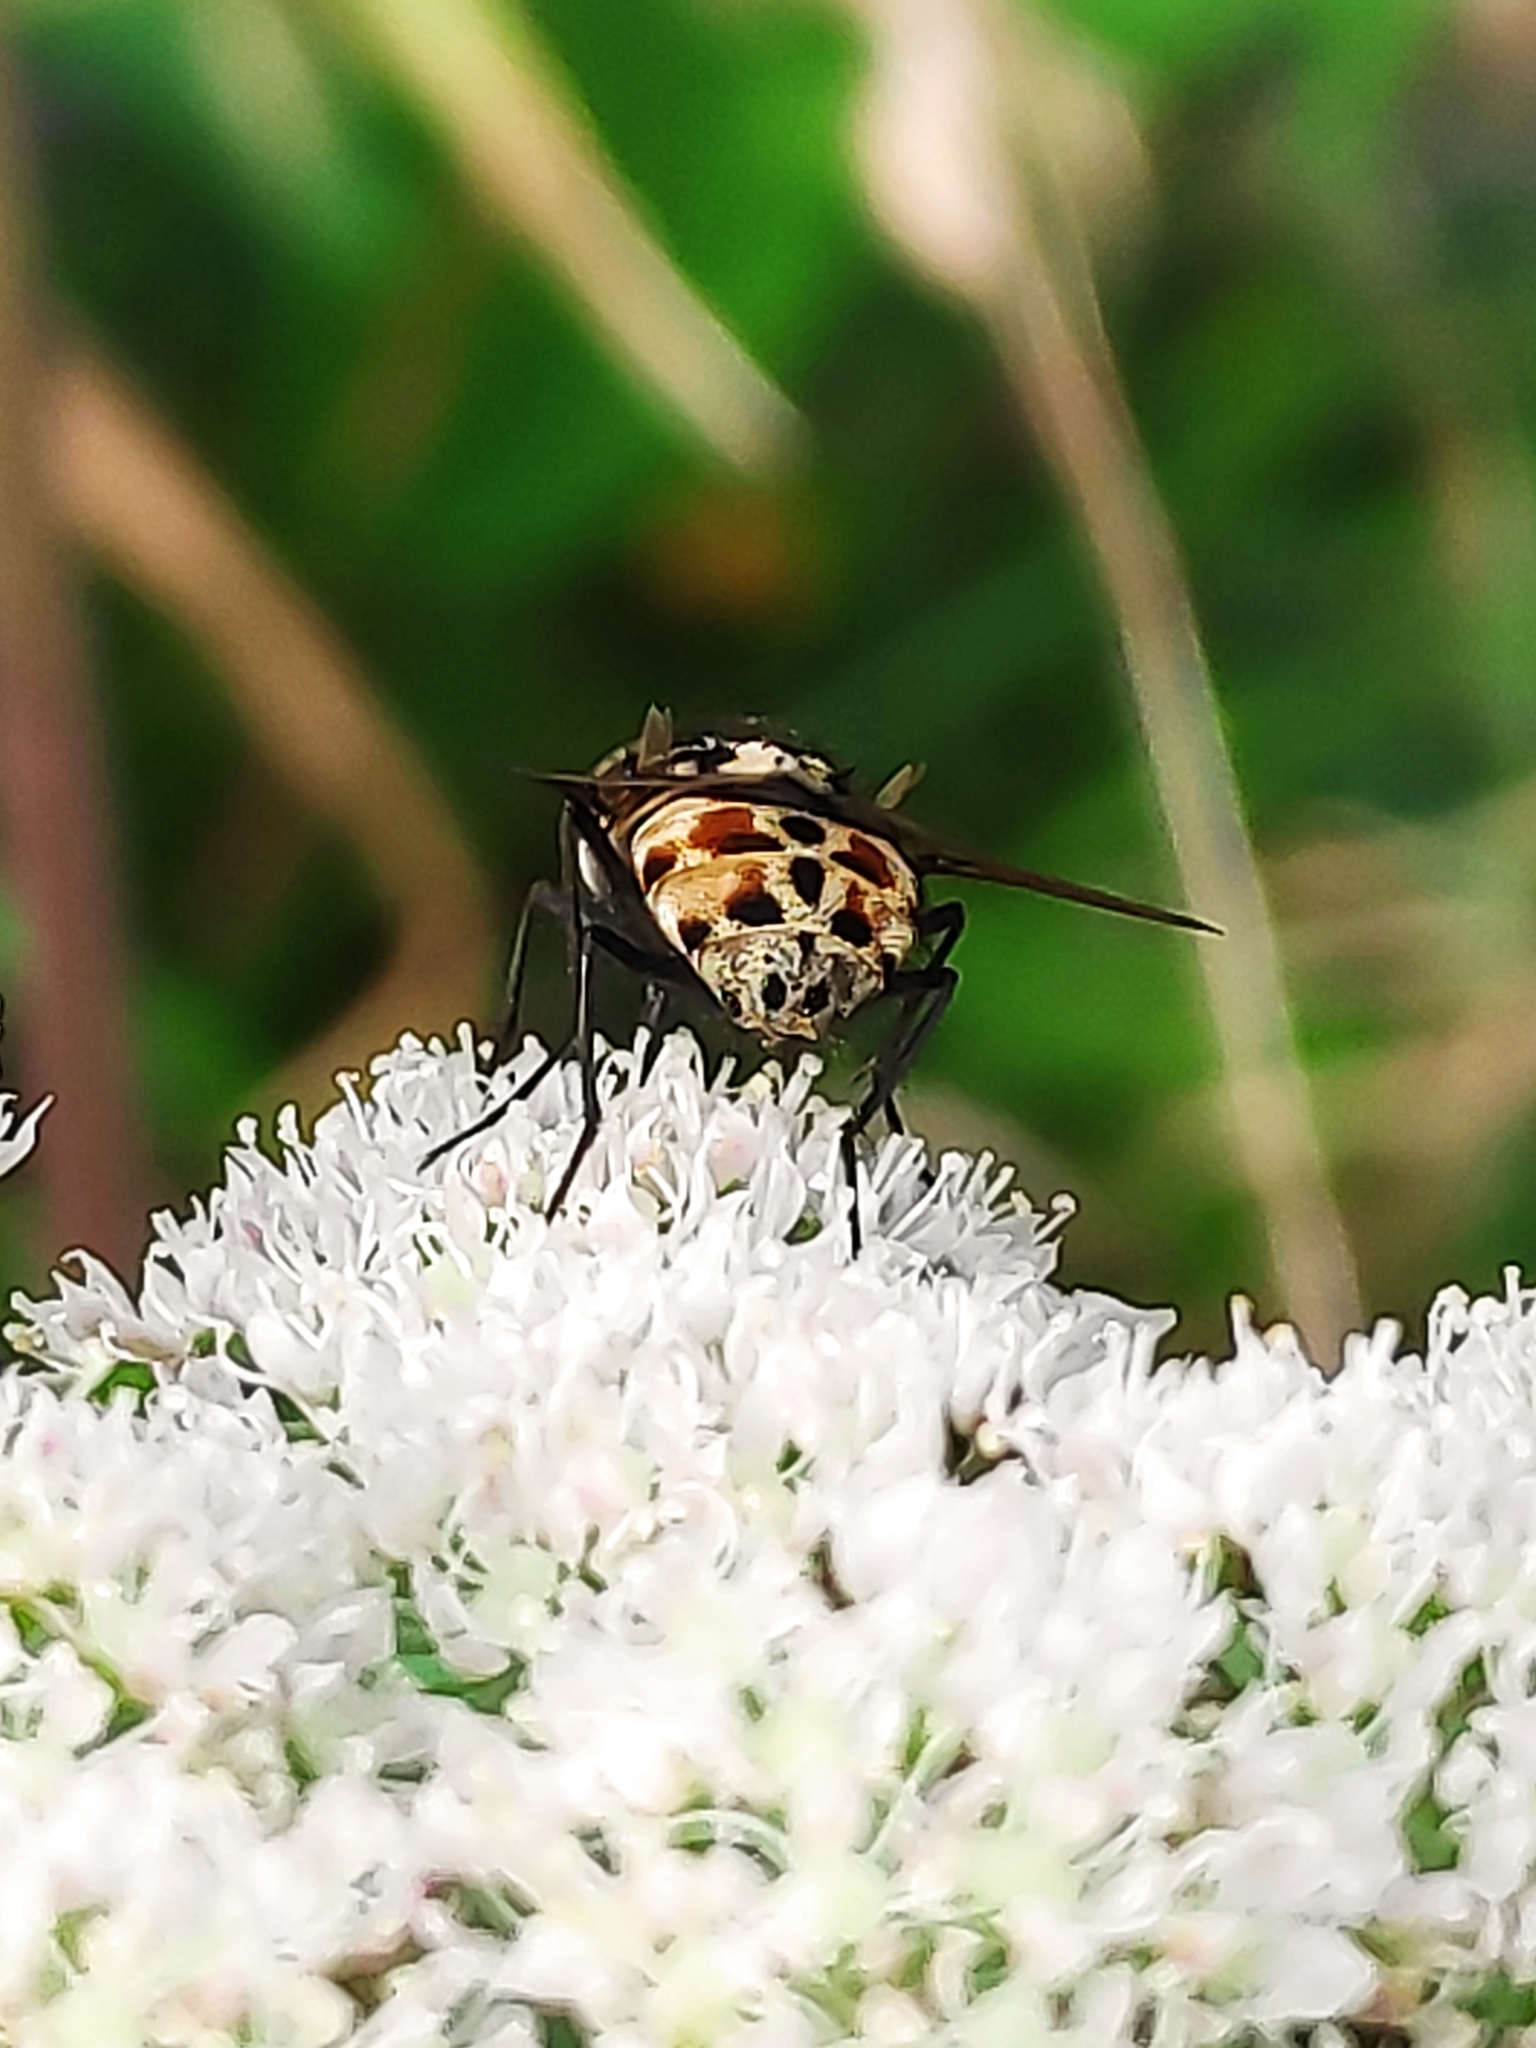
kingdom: Animalia
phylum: Arthropoda
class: Insecta
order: Diptera
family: Muscidae
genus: Graphomya
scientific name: Graphomya maculata
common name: Muscid fly
